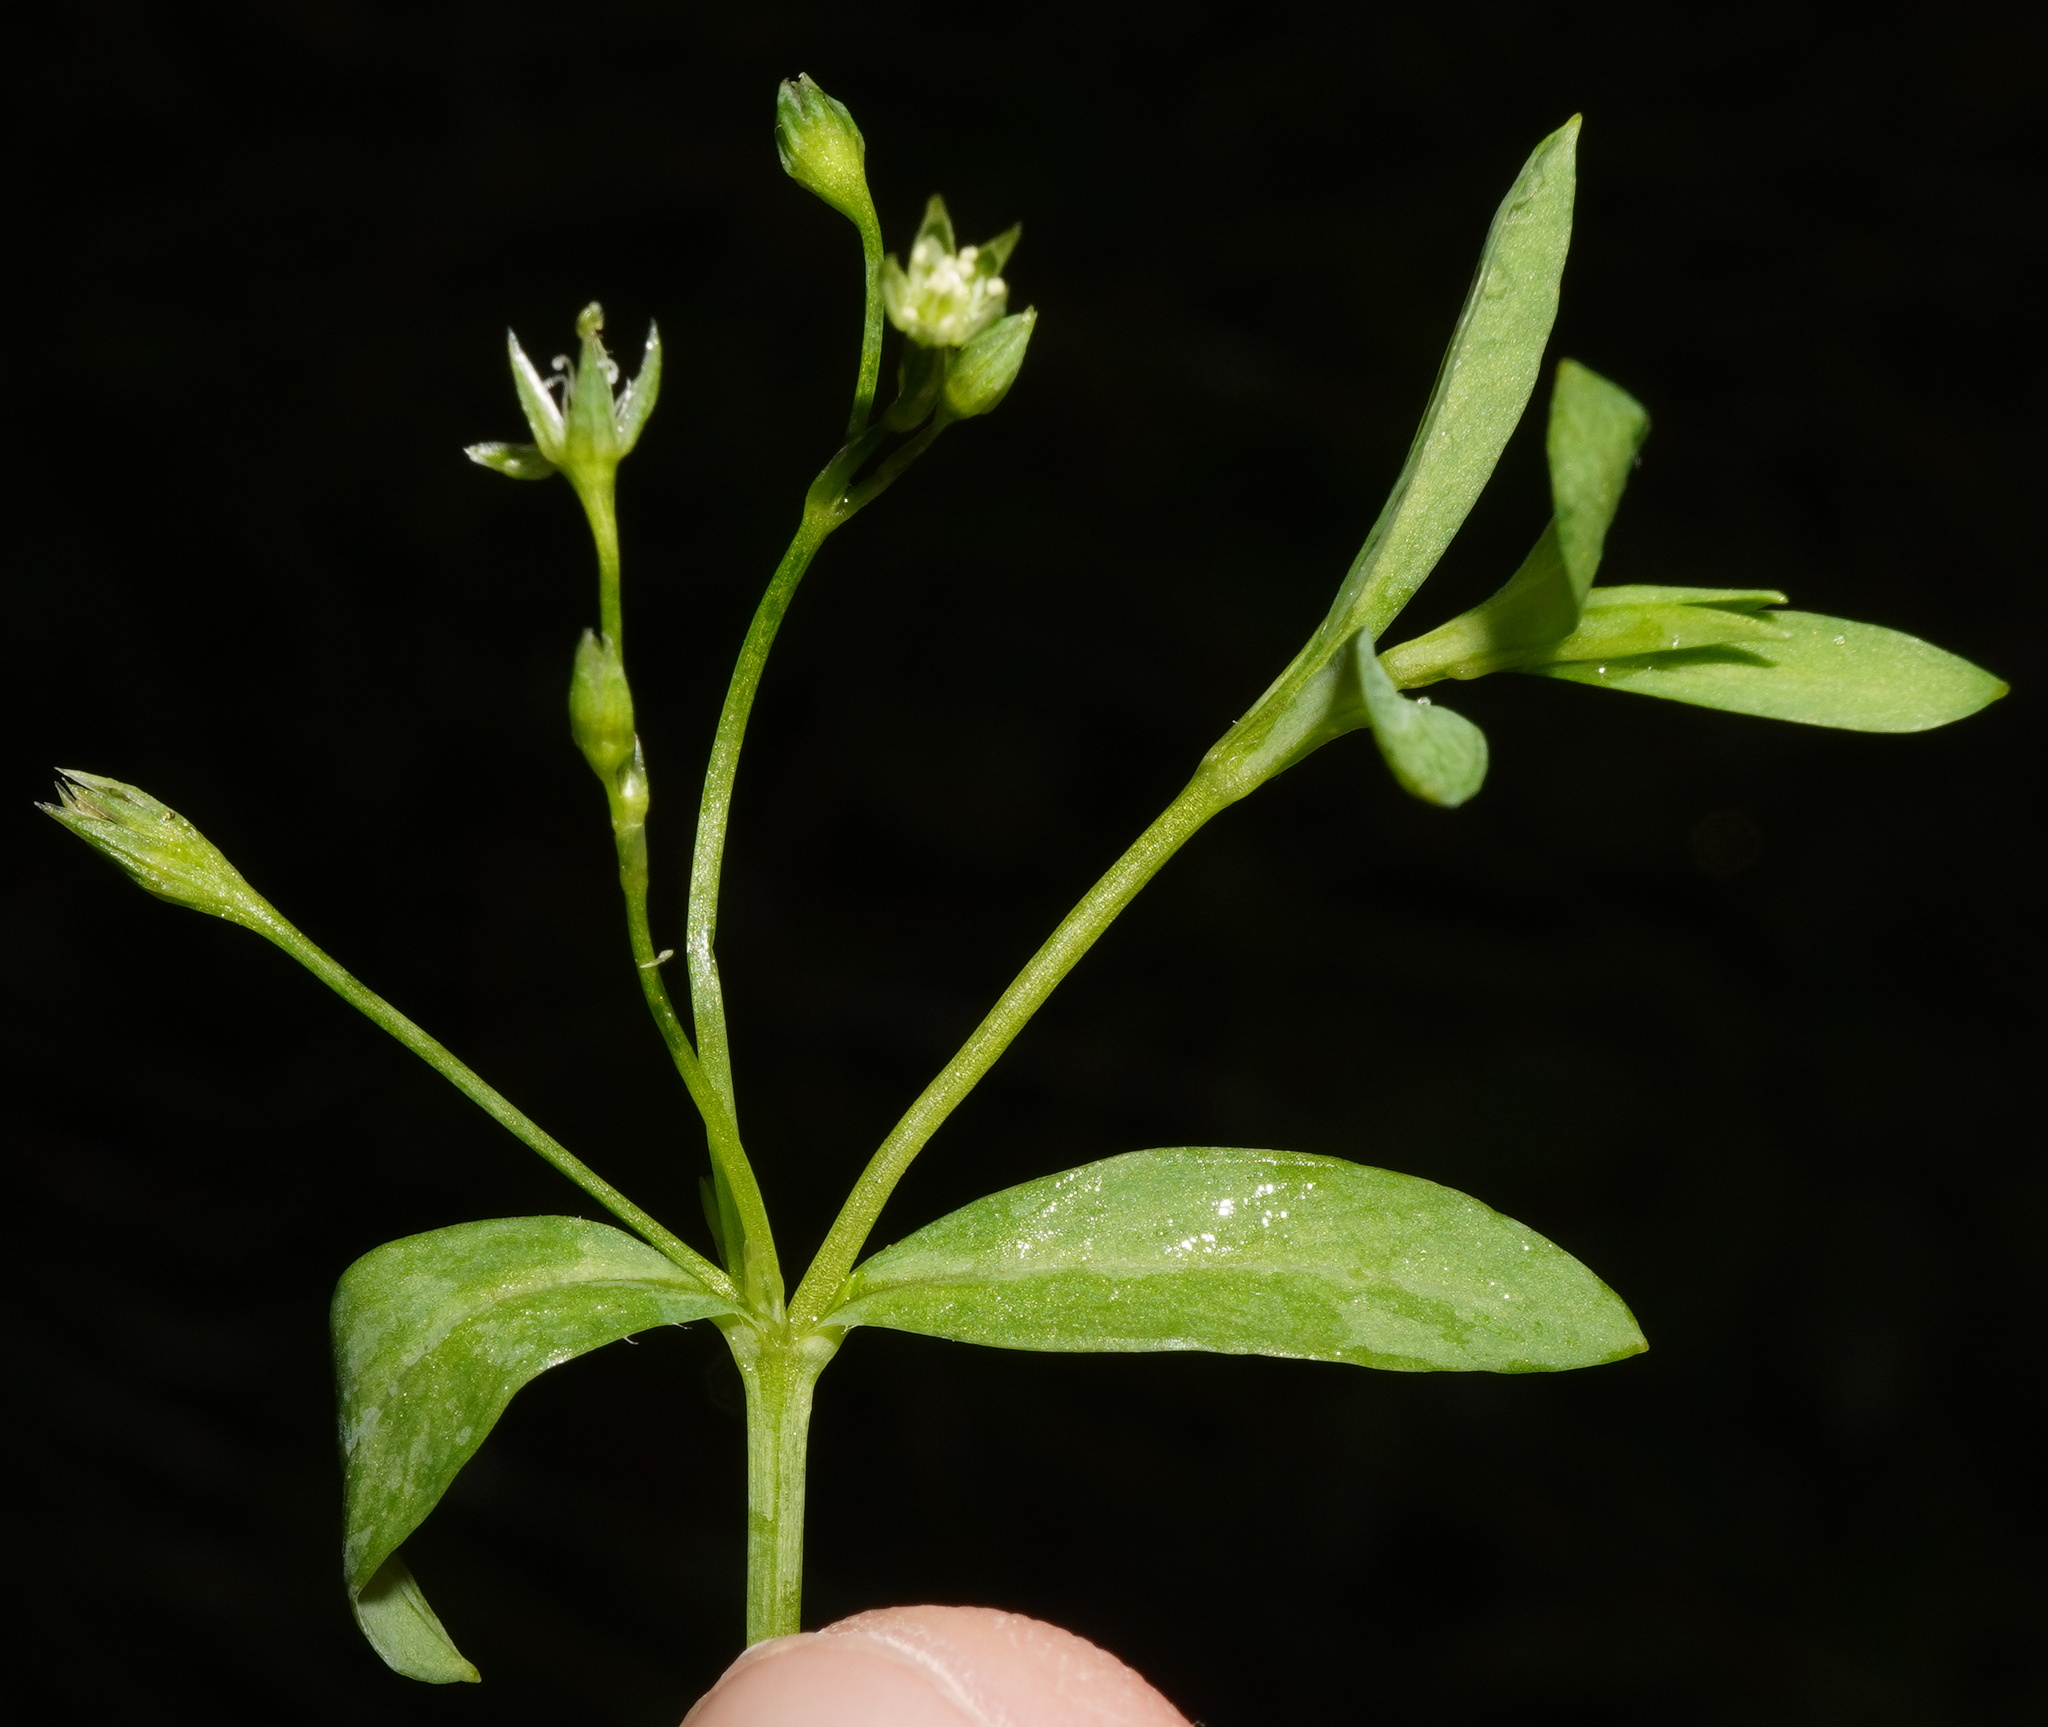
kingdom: Plantae
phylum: Tracheophyta
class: Magnoliopsida
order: Caryophyllales
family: Caryophyllaceae
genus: Stellaria
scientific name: Stellaria alsine
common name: Bog stitchwort
